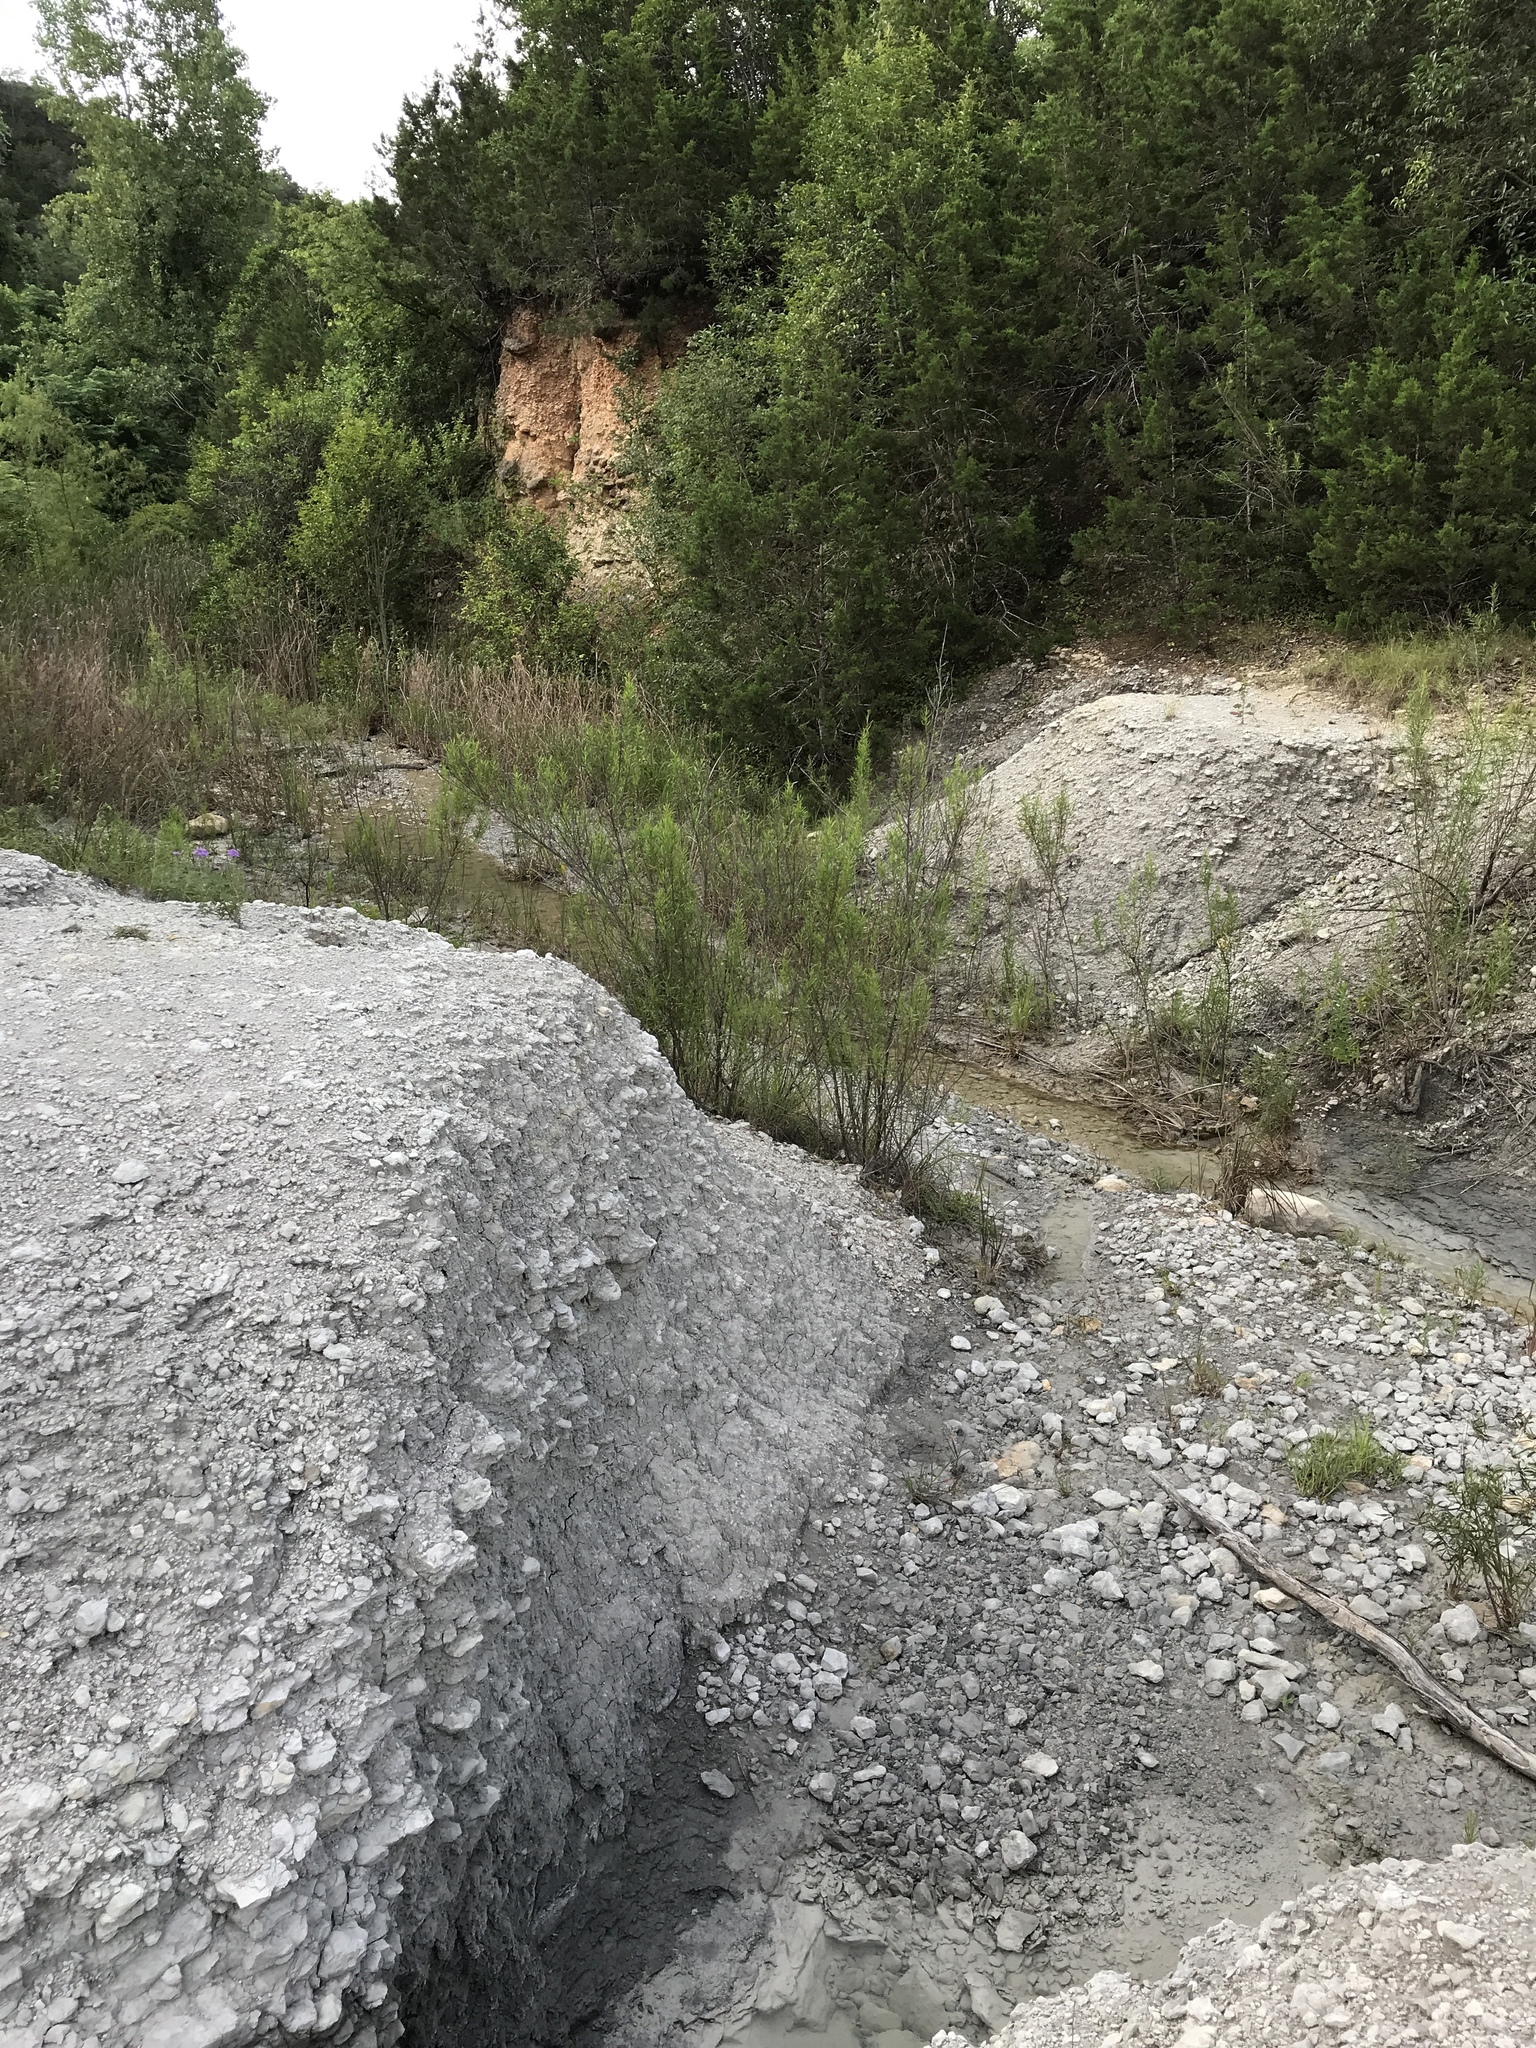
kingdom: Plantae
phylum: Tracheophyta
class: Magnoliopsida
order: Asterales
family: Asteraceae
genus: Baccharis
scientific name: Baccharis neglecta
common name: Roosevelt-weed
